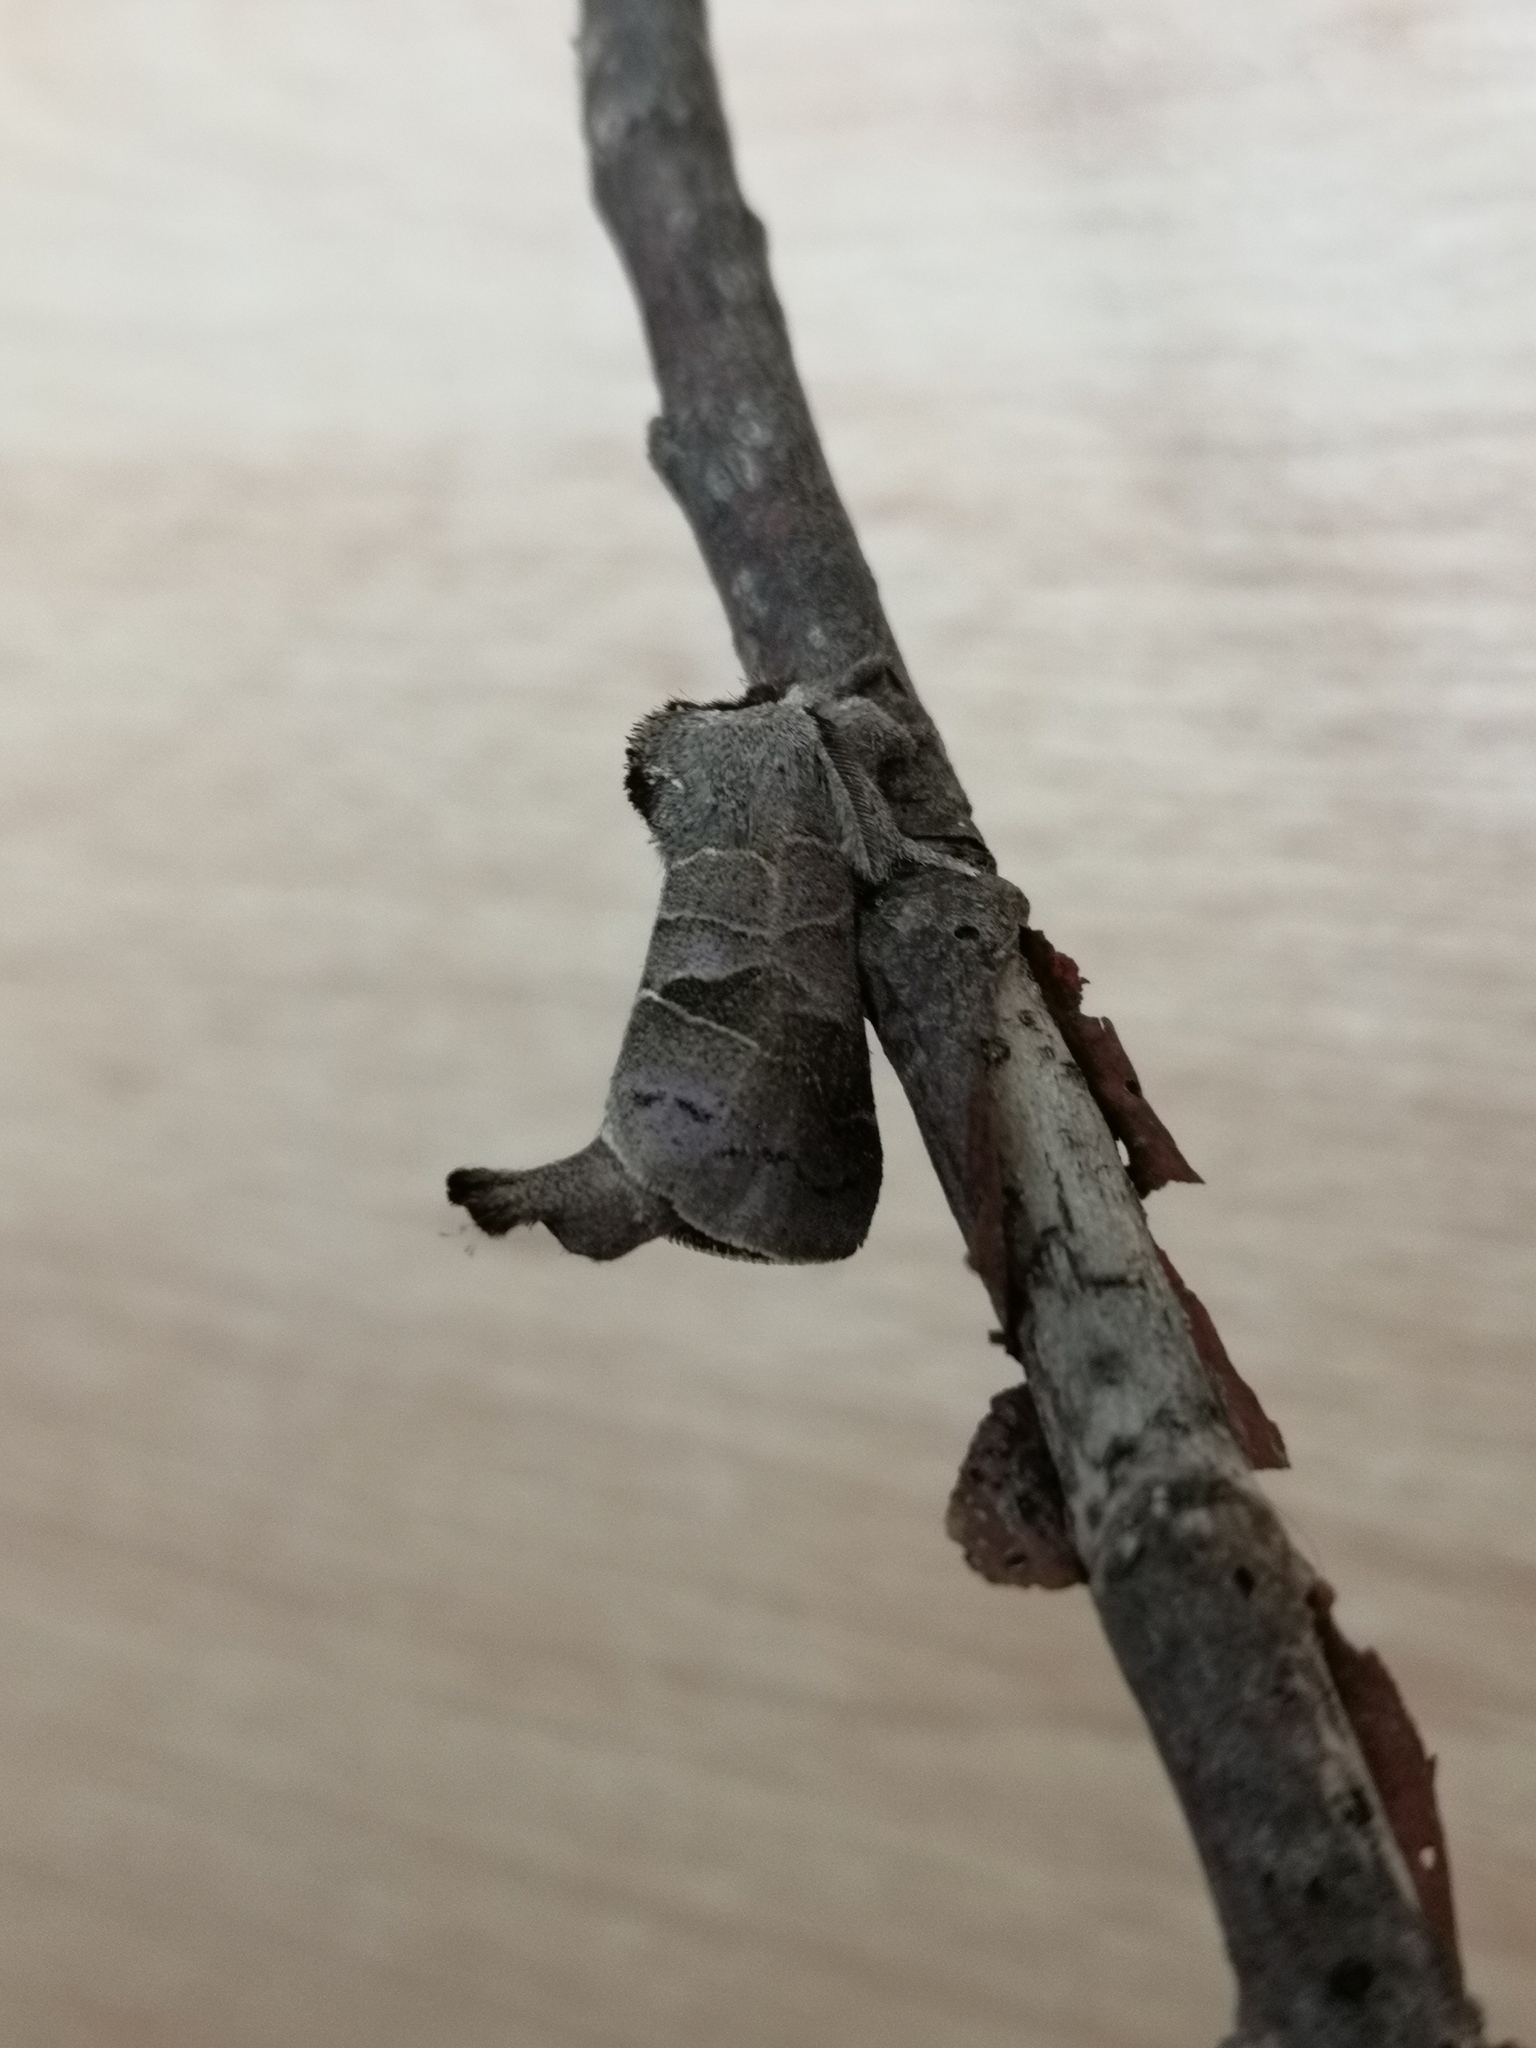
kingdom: Animalia
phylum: Arthropoda
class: Insecta
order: Lepidoptera
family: Notodontidae
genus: Clostera
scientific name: Clostera pigra
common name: Small chocolate-tip
